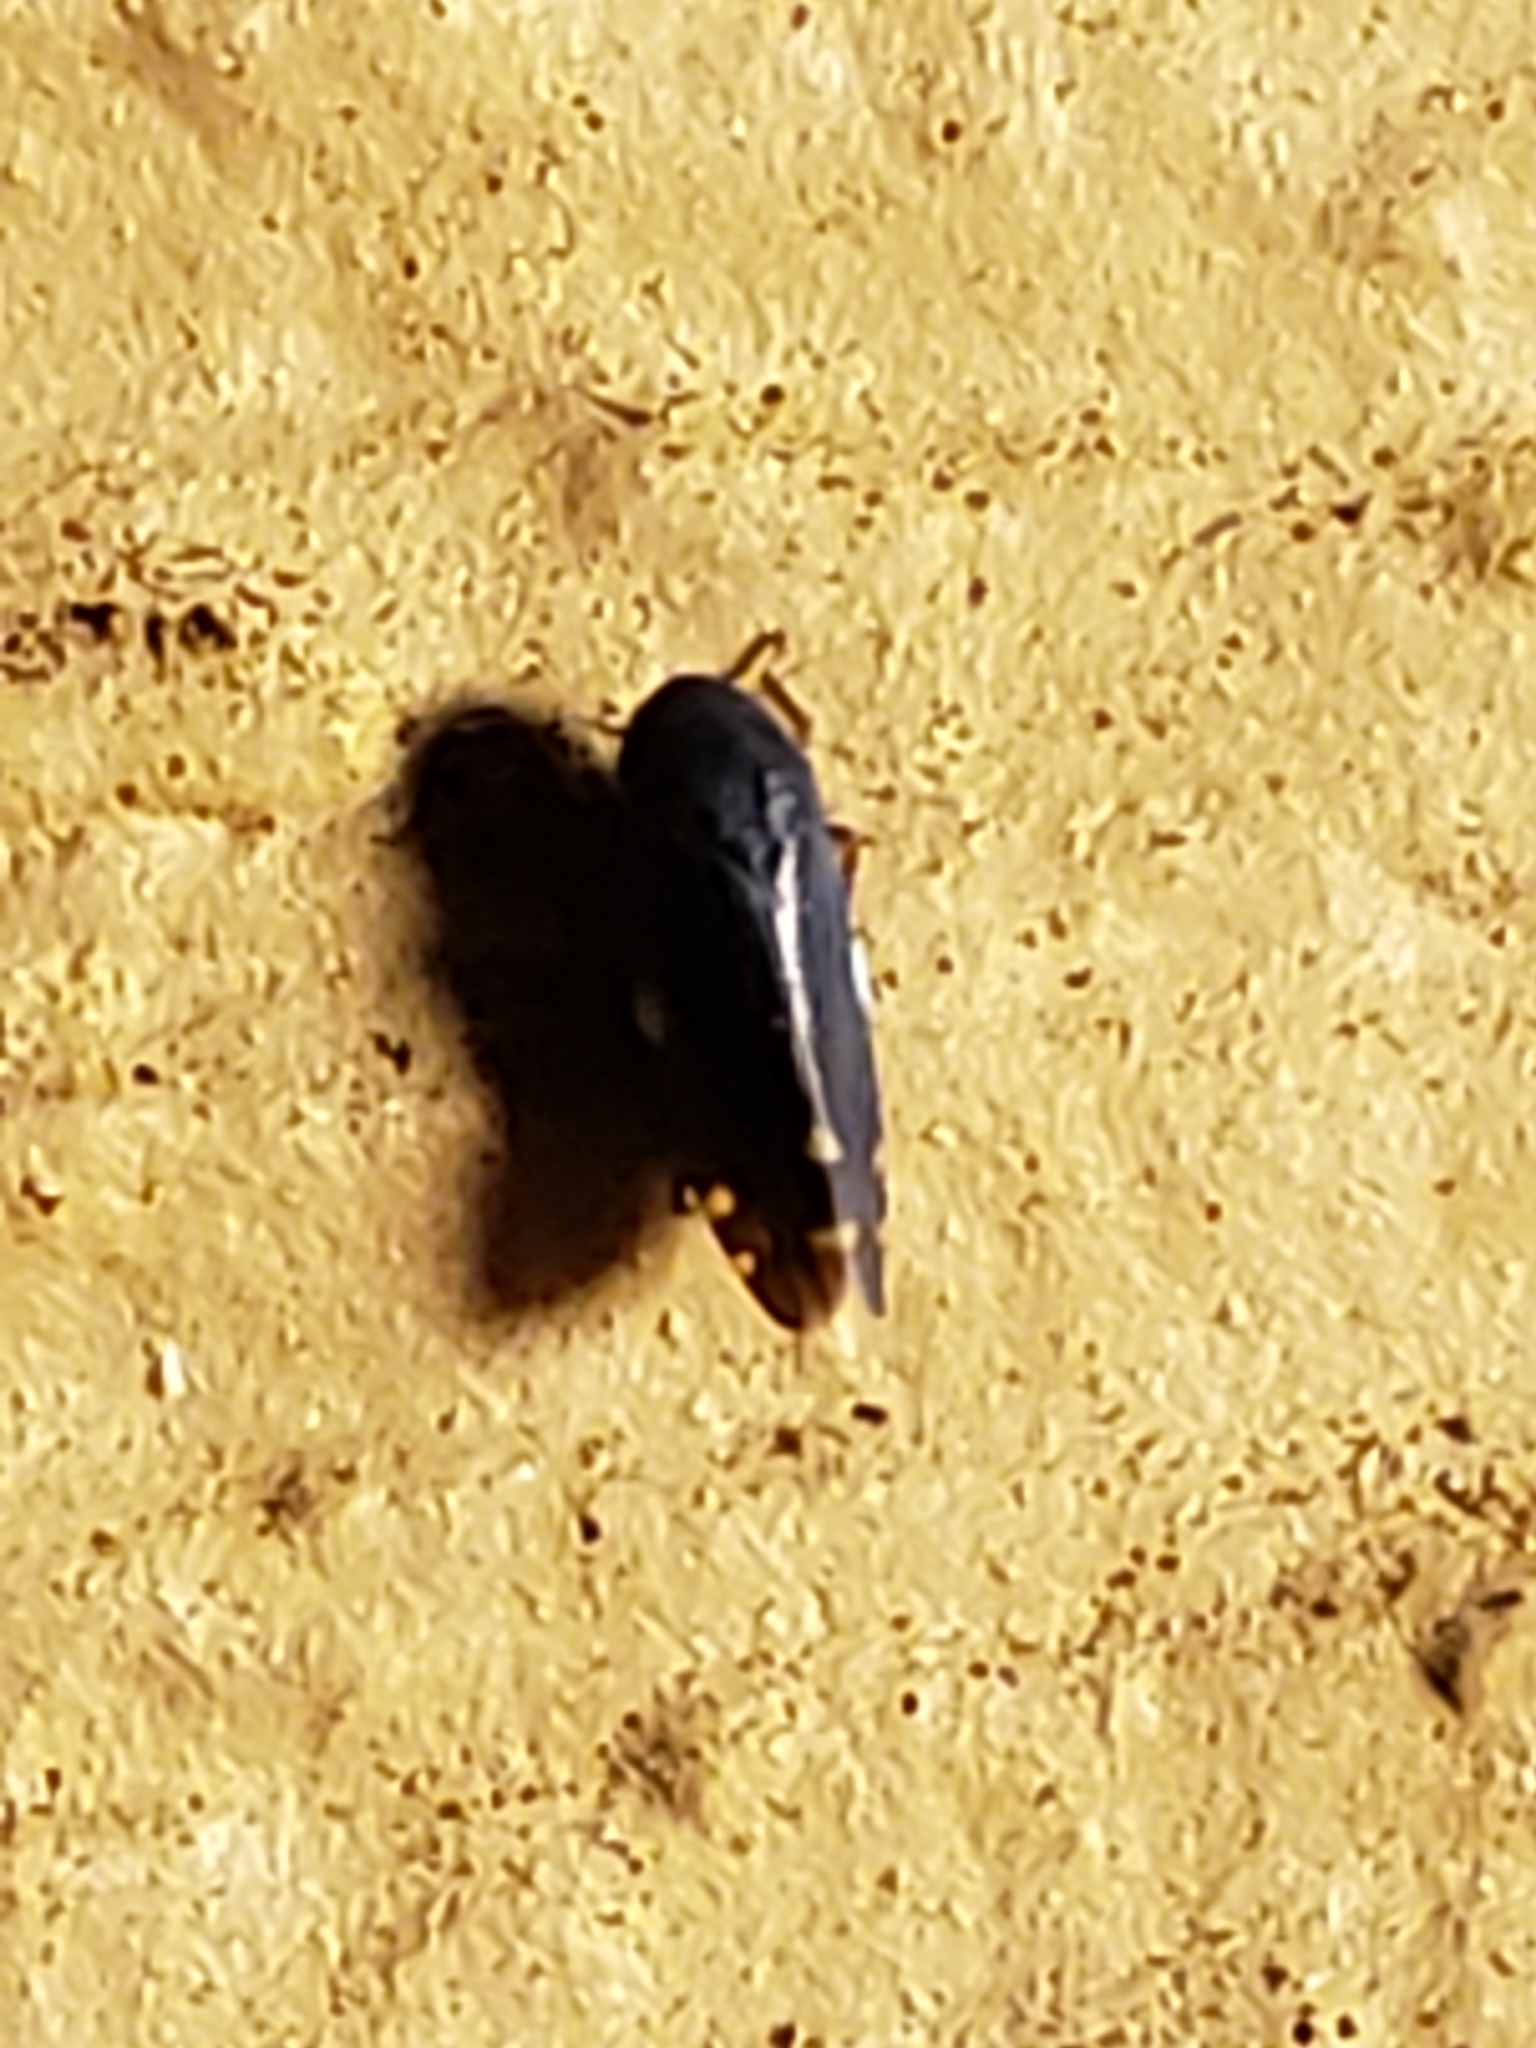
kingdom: Animalia
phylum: Arthropoda
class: Insecta
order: Hemiptera
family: Cicadellidae
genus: Xestocephalus
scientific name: Xestocephalus brunneus
